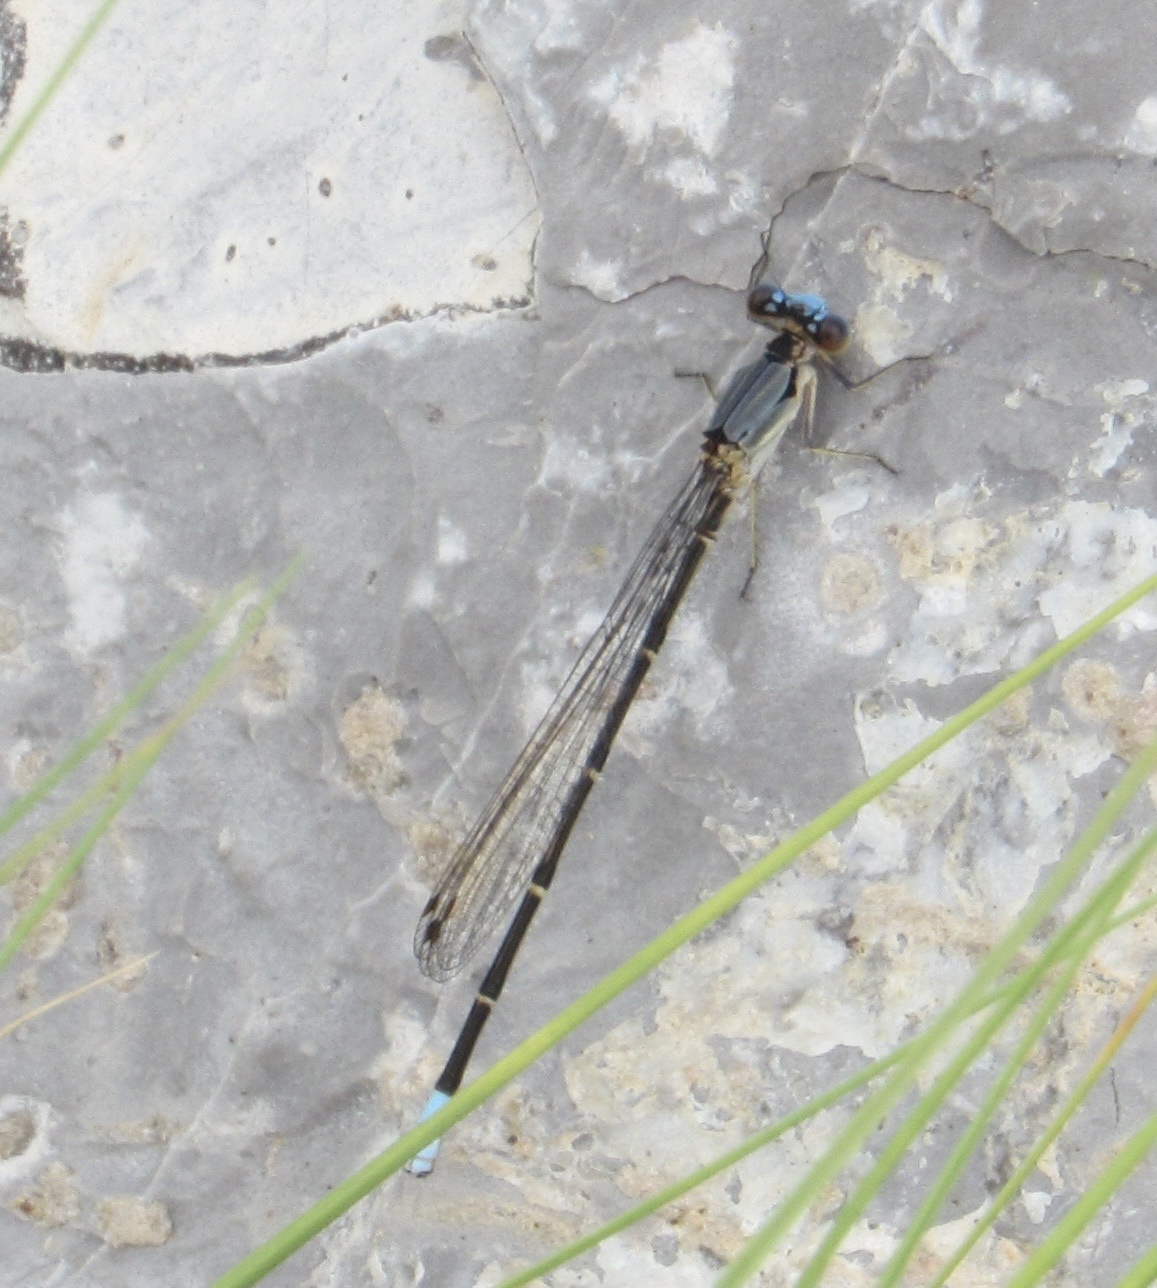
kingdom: Animalia
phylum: Arthropoda
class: Insecta
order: Odonata
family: Coenagrionidae
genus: Argia
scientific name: Argia apicalis
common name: Blue-fronted dancer
